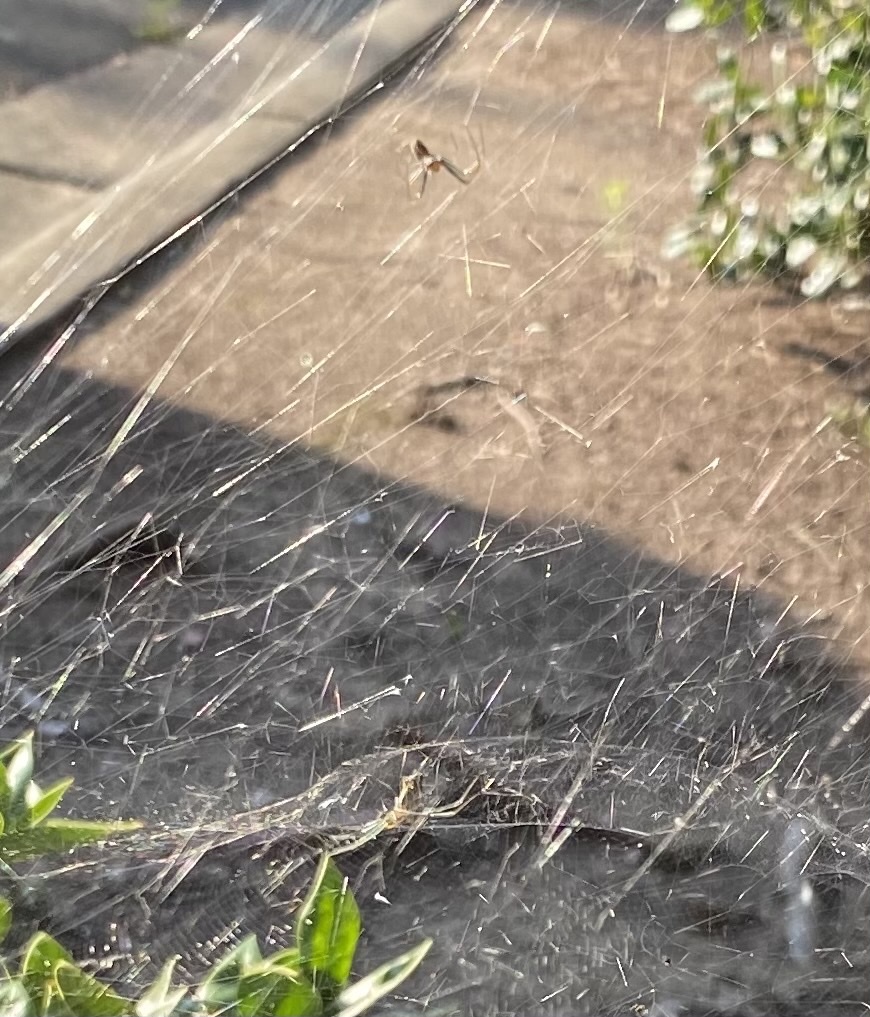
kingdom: Animalia
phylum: Arthropoda
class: Arachnida
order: Araneae
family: Araneidae
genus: Mecynogea
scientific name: Mecynogea lemniscata
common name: Orb weavers
